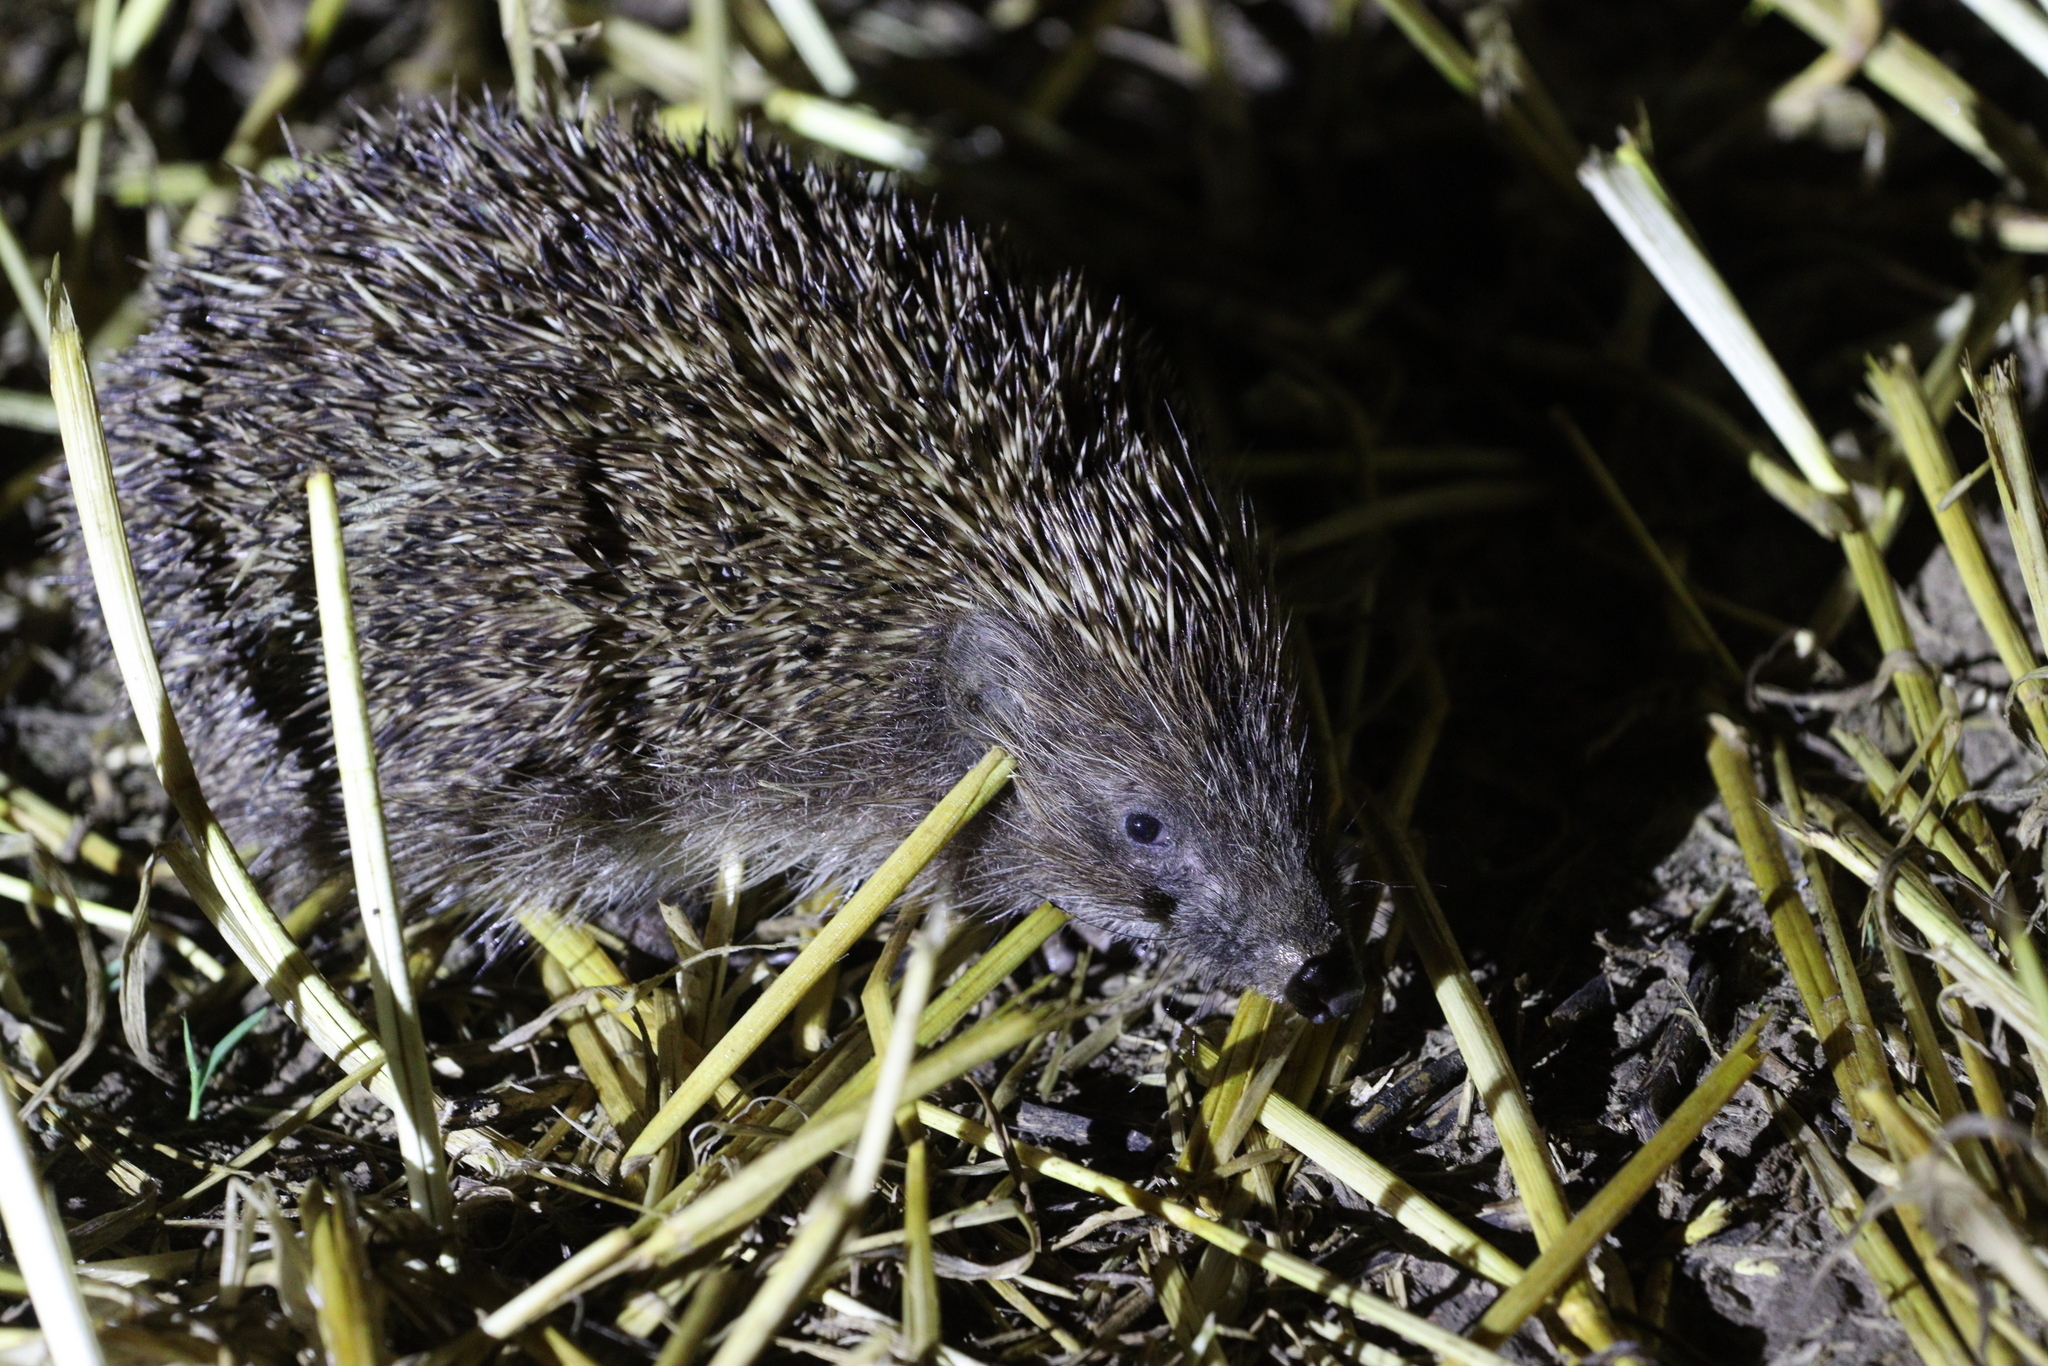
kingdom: Animalia
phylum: Chordata
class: Mammalia
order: Erinaceomorpha
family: Erinaceidae
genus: Erinaceus
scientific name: Erinaceus roumanicus
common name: Northern white-breasted hedgehog
